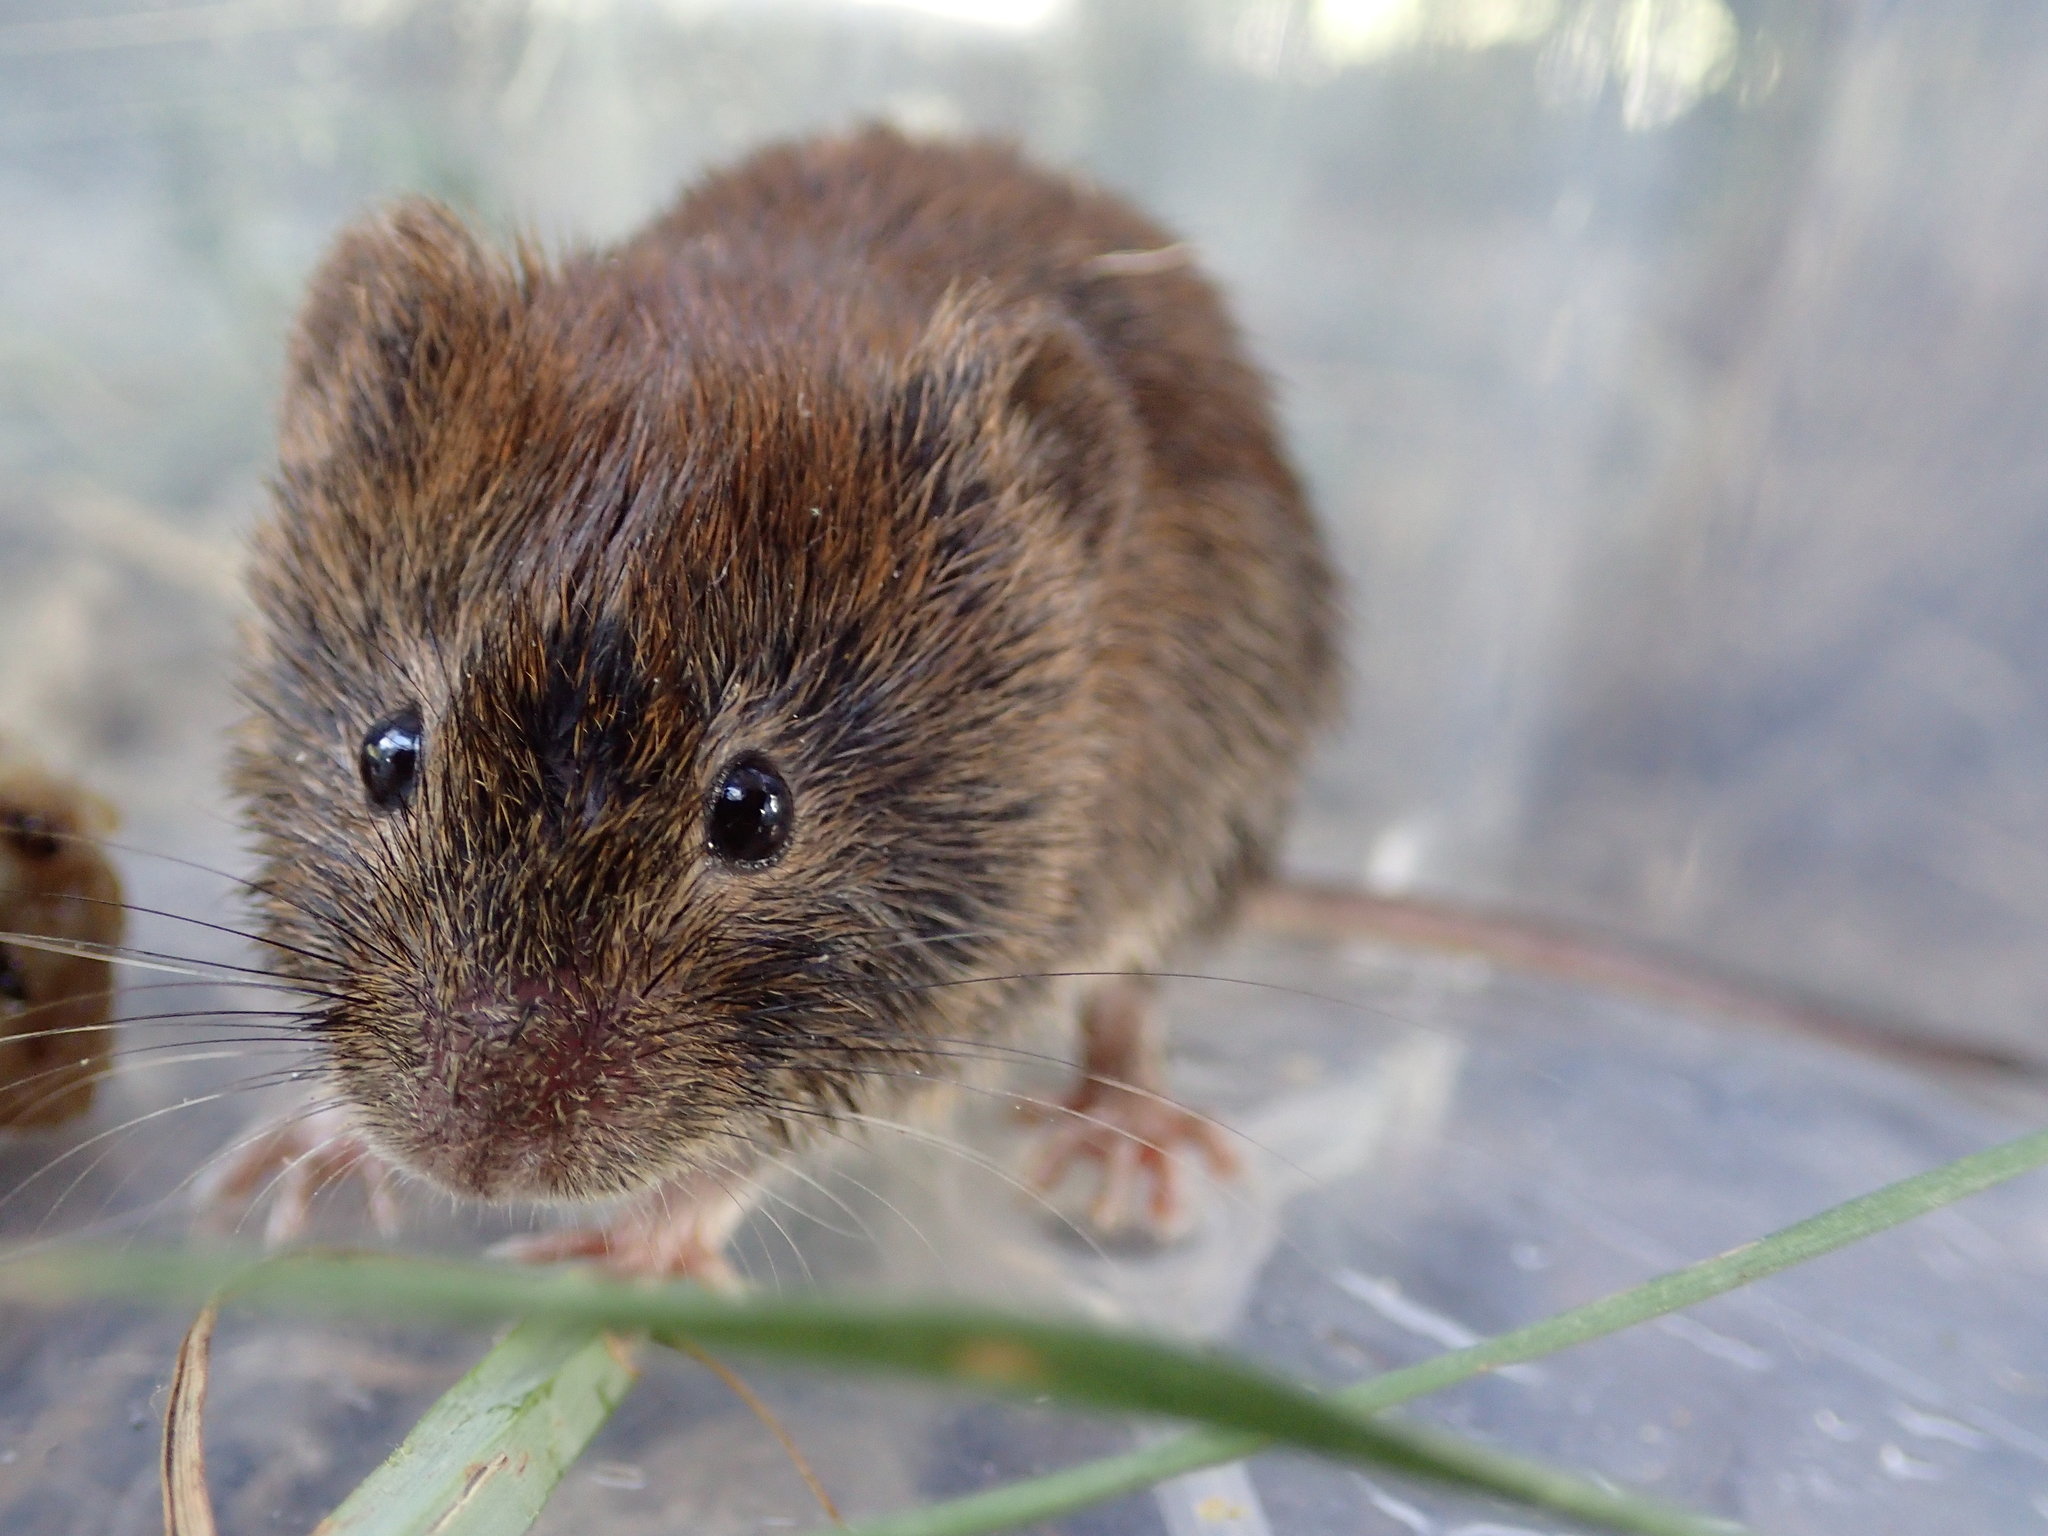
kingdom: Animalia
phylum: Chordata
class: Mammalia
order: Rodentia
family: Cricetidae
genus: Myodes
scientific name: Myodes glareolus
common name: Bank vole
